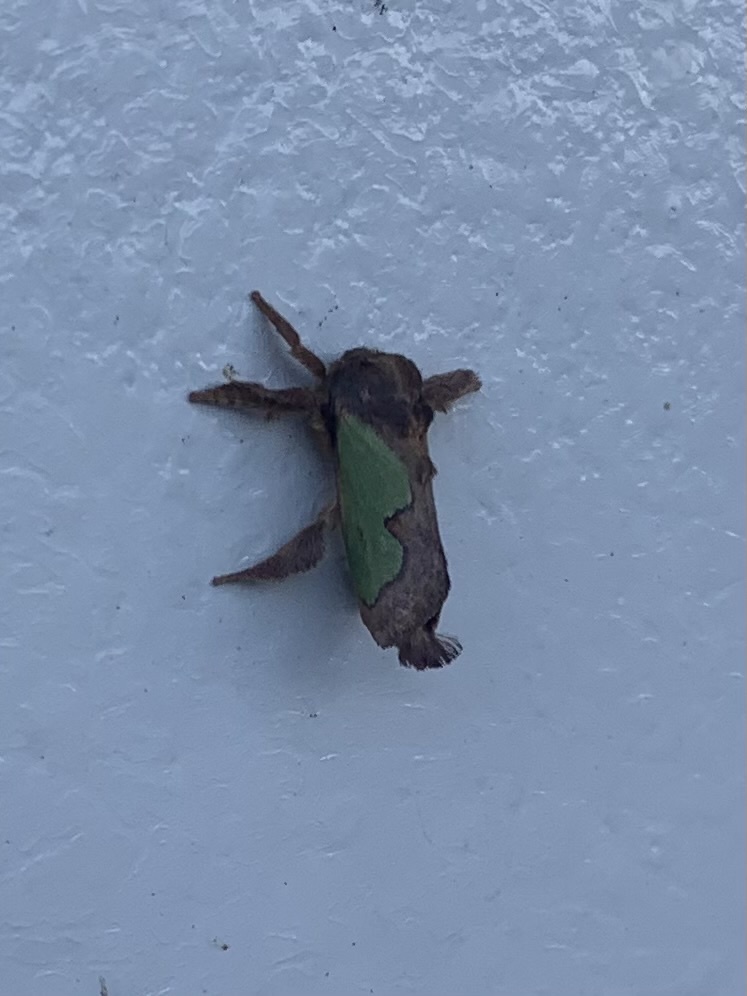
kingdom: Animalia
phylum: Arthropoda
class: Insecta
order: Lepidoptera
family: Limacodidae
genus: Euclea
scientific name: Euclea incisa
